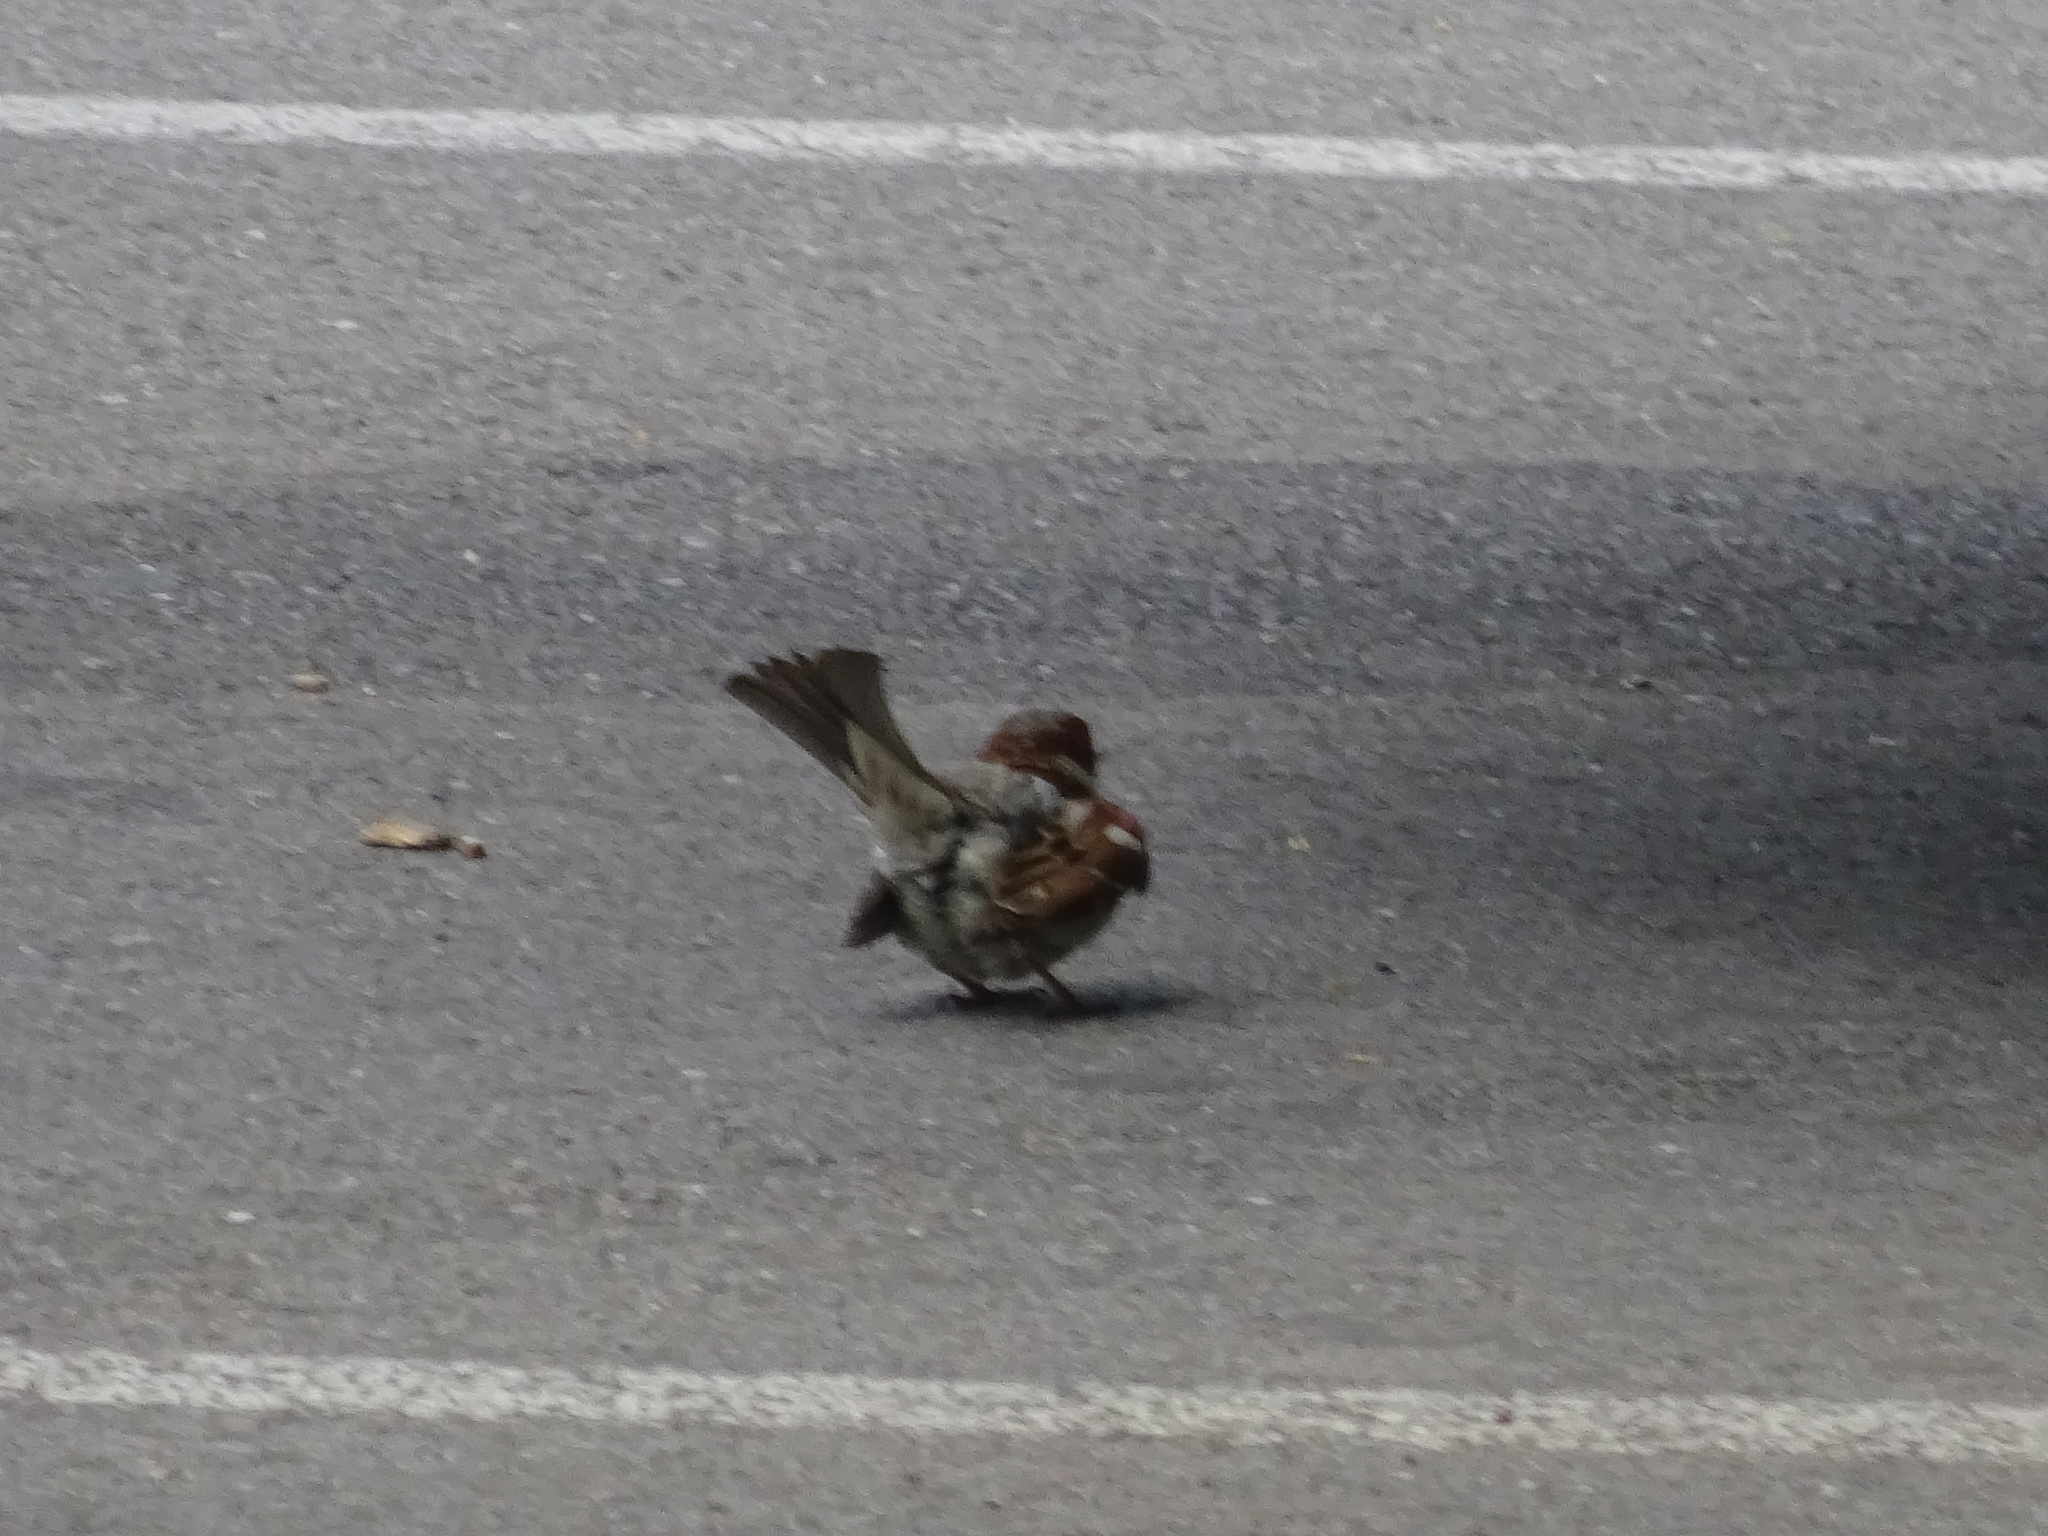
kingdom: Animalia
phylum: Chordata
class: Aves
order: Passeriformes
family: Passeridae
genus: Passer
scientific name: Passer domesticus
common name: House sparrow
